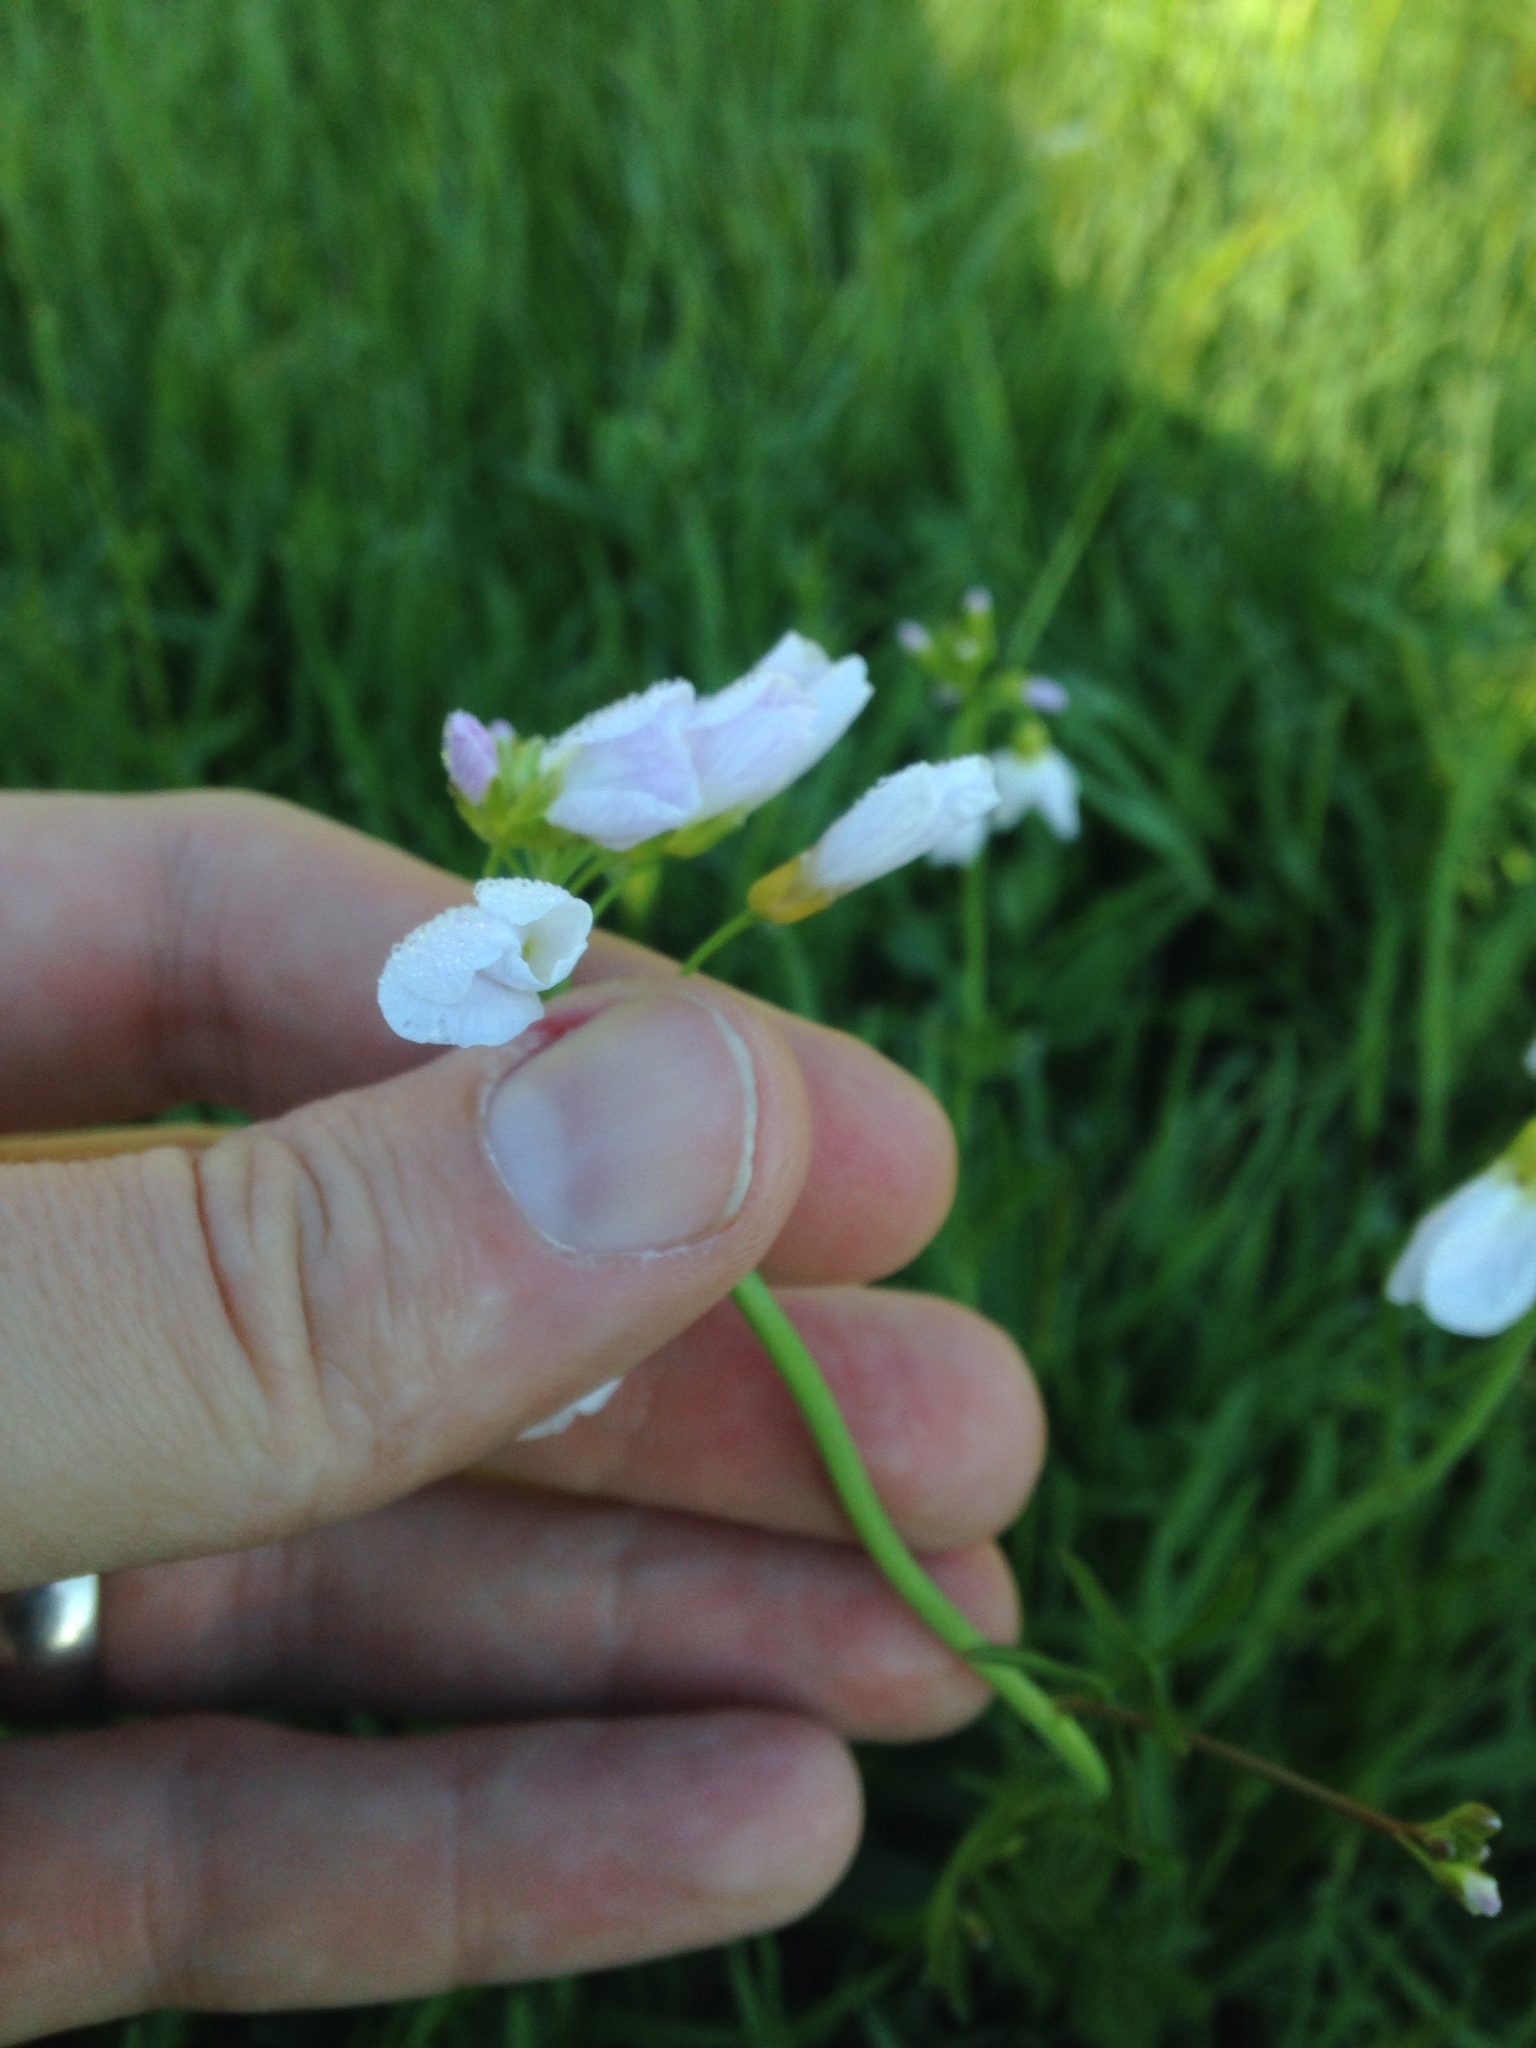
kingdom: Plantae
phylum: Tracheophyta
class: Magnoliopsida
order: Brassicales
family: Brassicaceae
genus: Cardamine
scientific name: Cardamine pratensis
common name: Cuckoo flower
